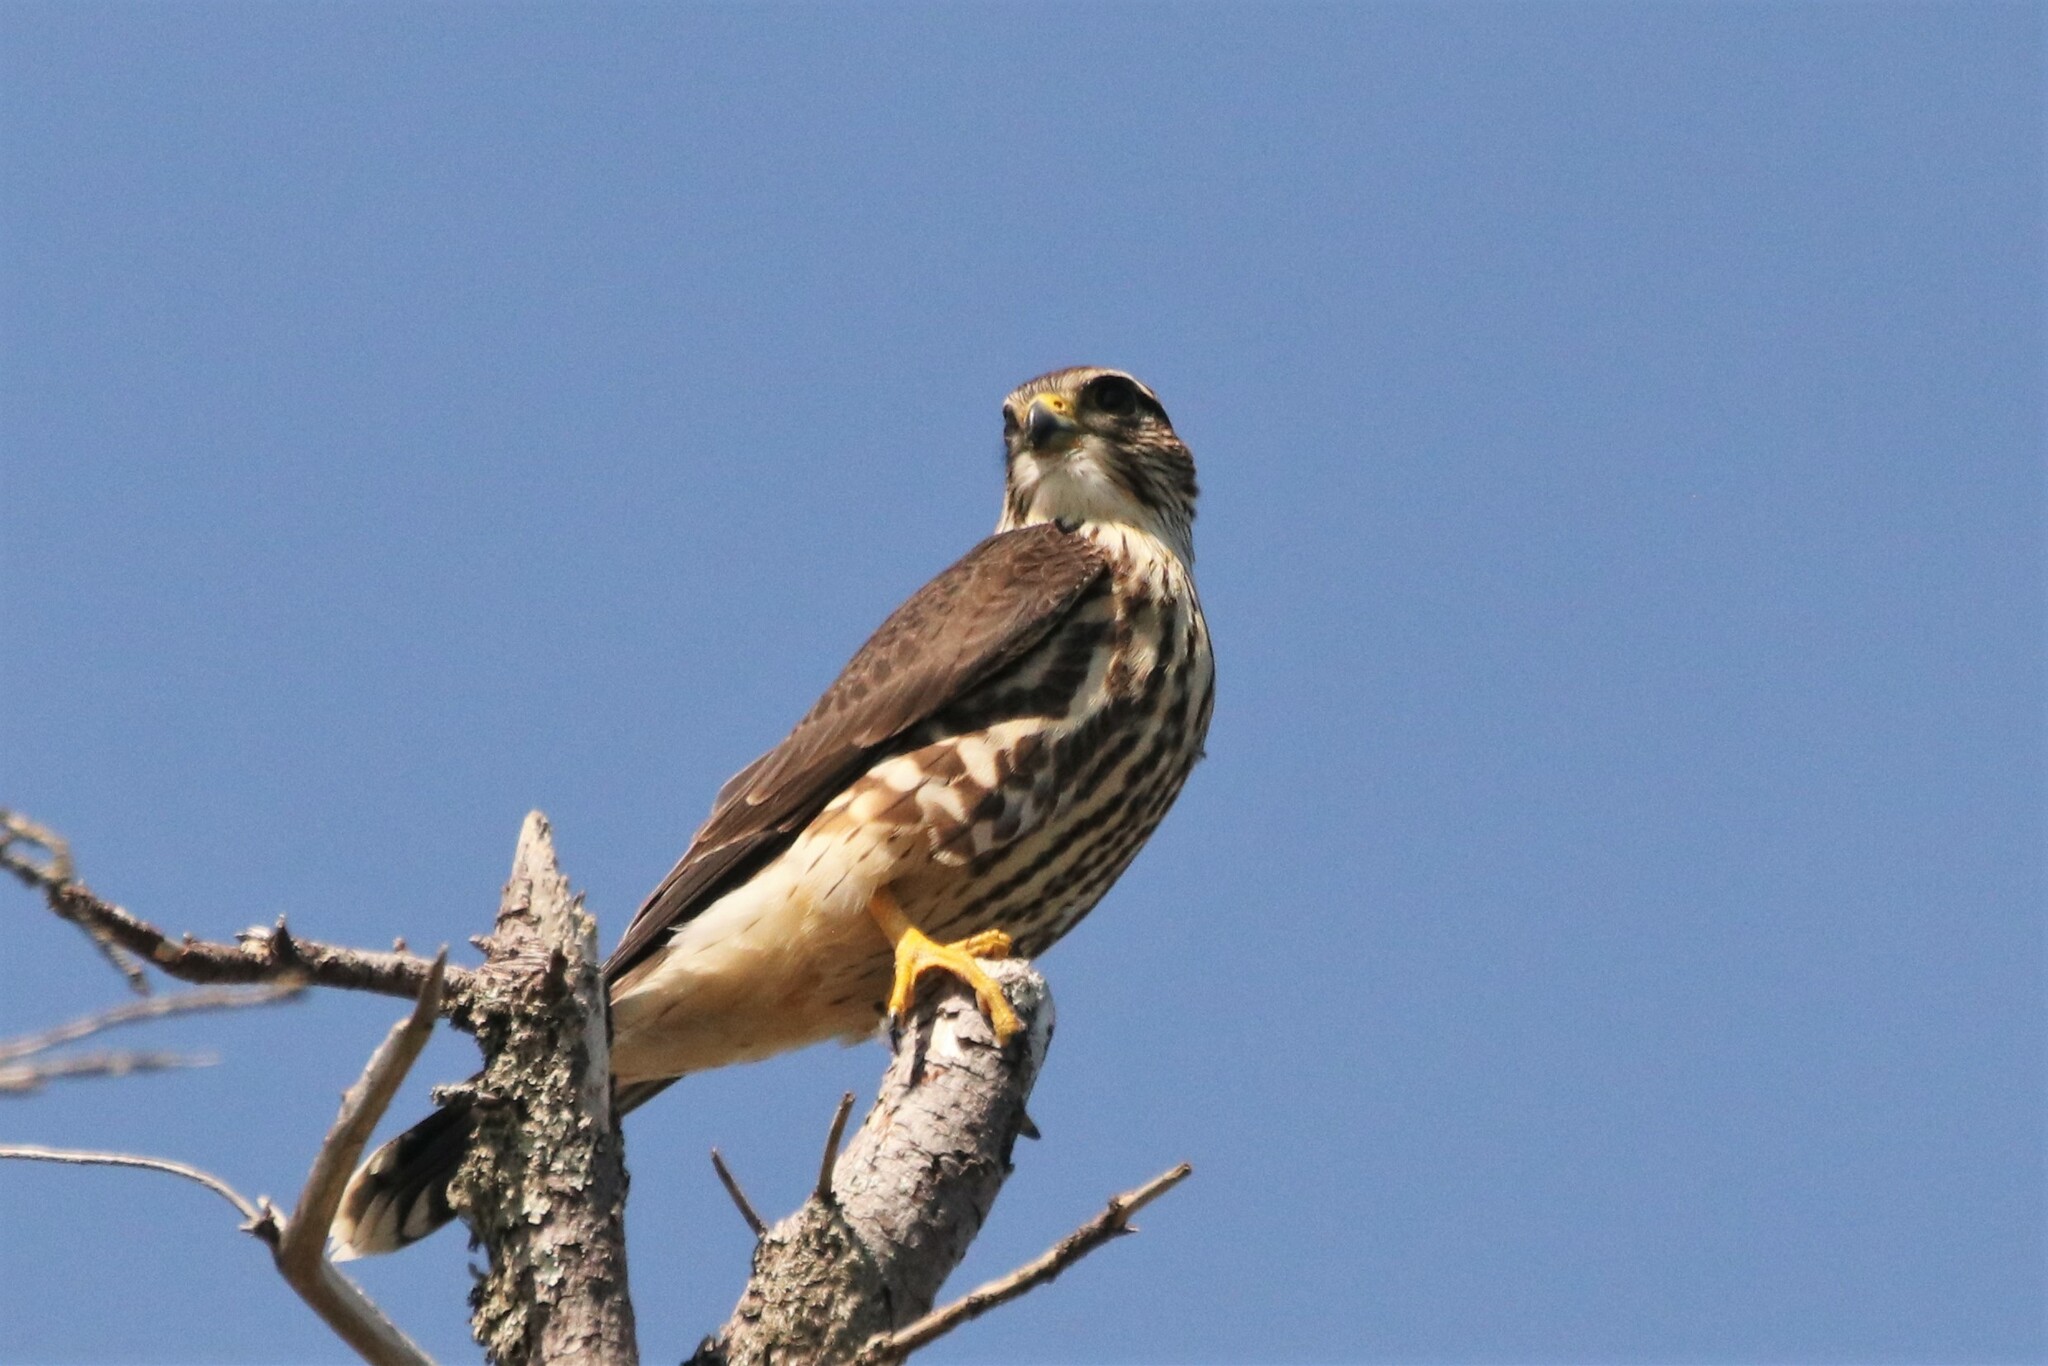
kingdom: Animalia
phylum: Chordata
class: Aves
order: Falconiformes
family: Falconidae
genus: Falco
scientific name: Falco columbarius
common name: Merlin
